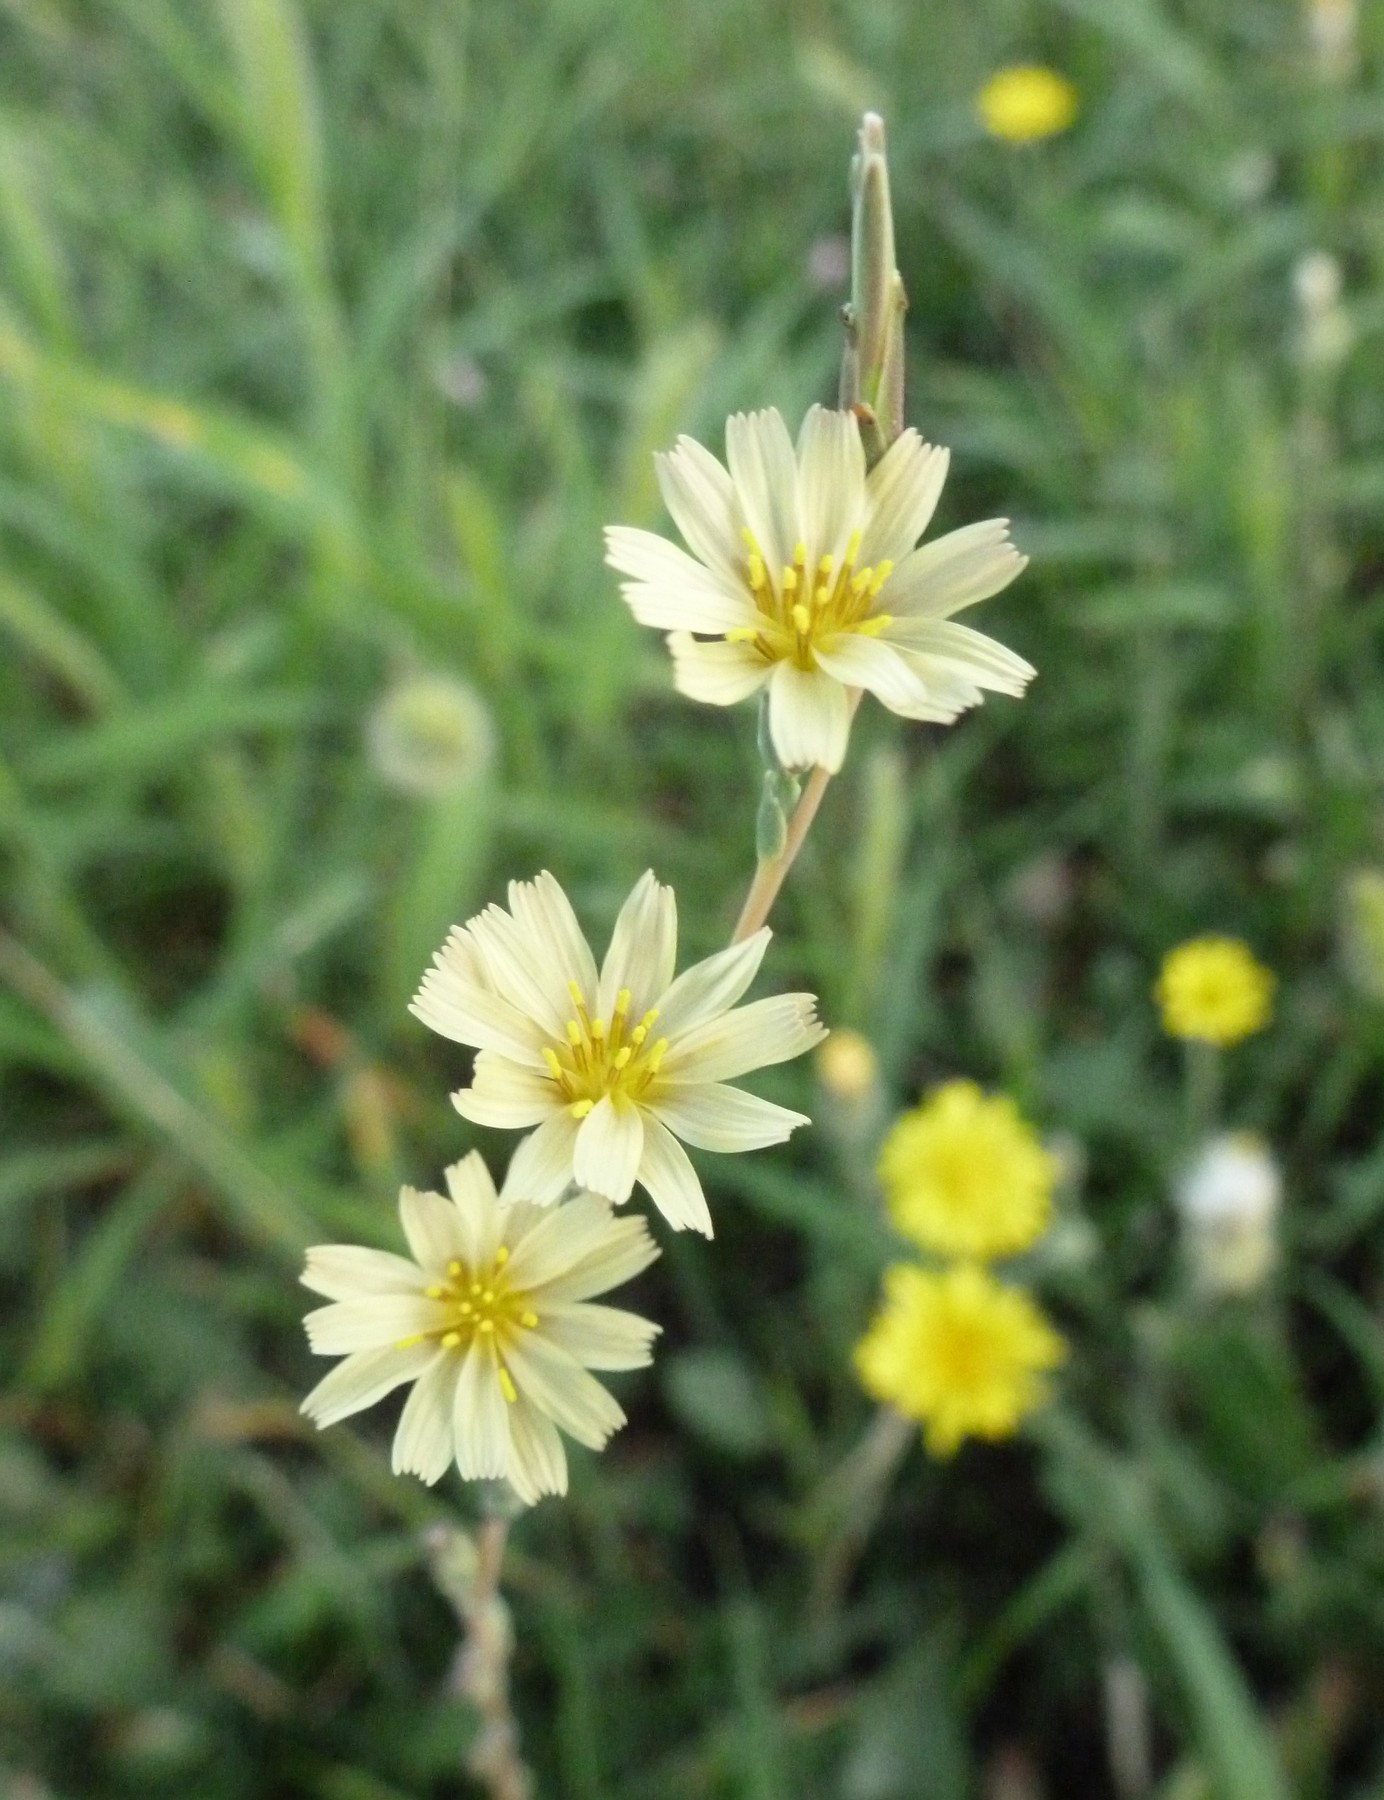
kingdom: Plantae
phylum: Tracheophyta
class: Magnoliopsida
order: Asterales
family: Asteraceae
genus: Lactuca
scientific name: Lactuca saligna
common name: Wild lettuce
